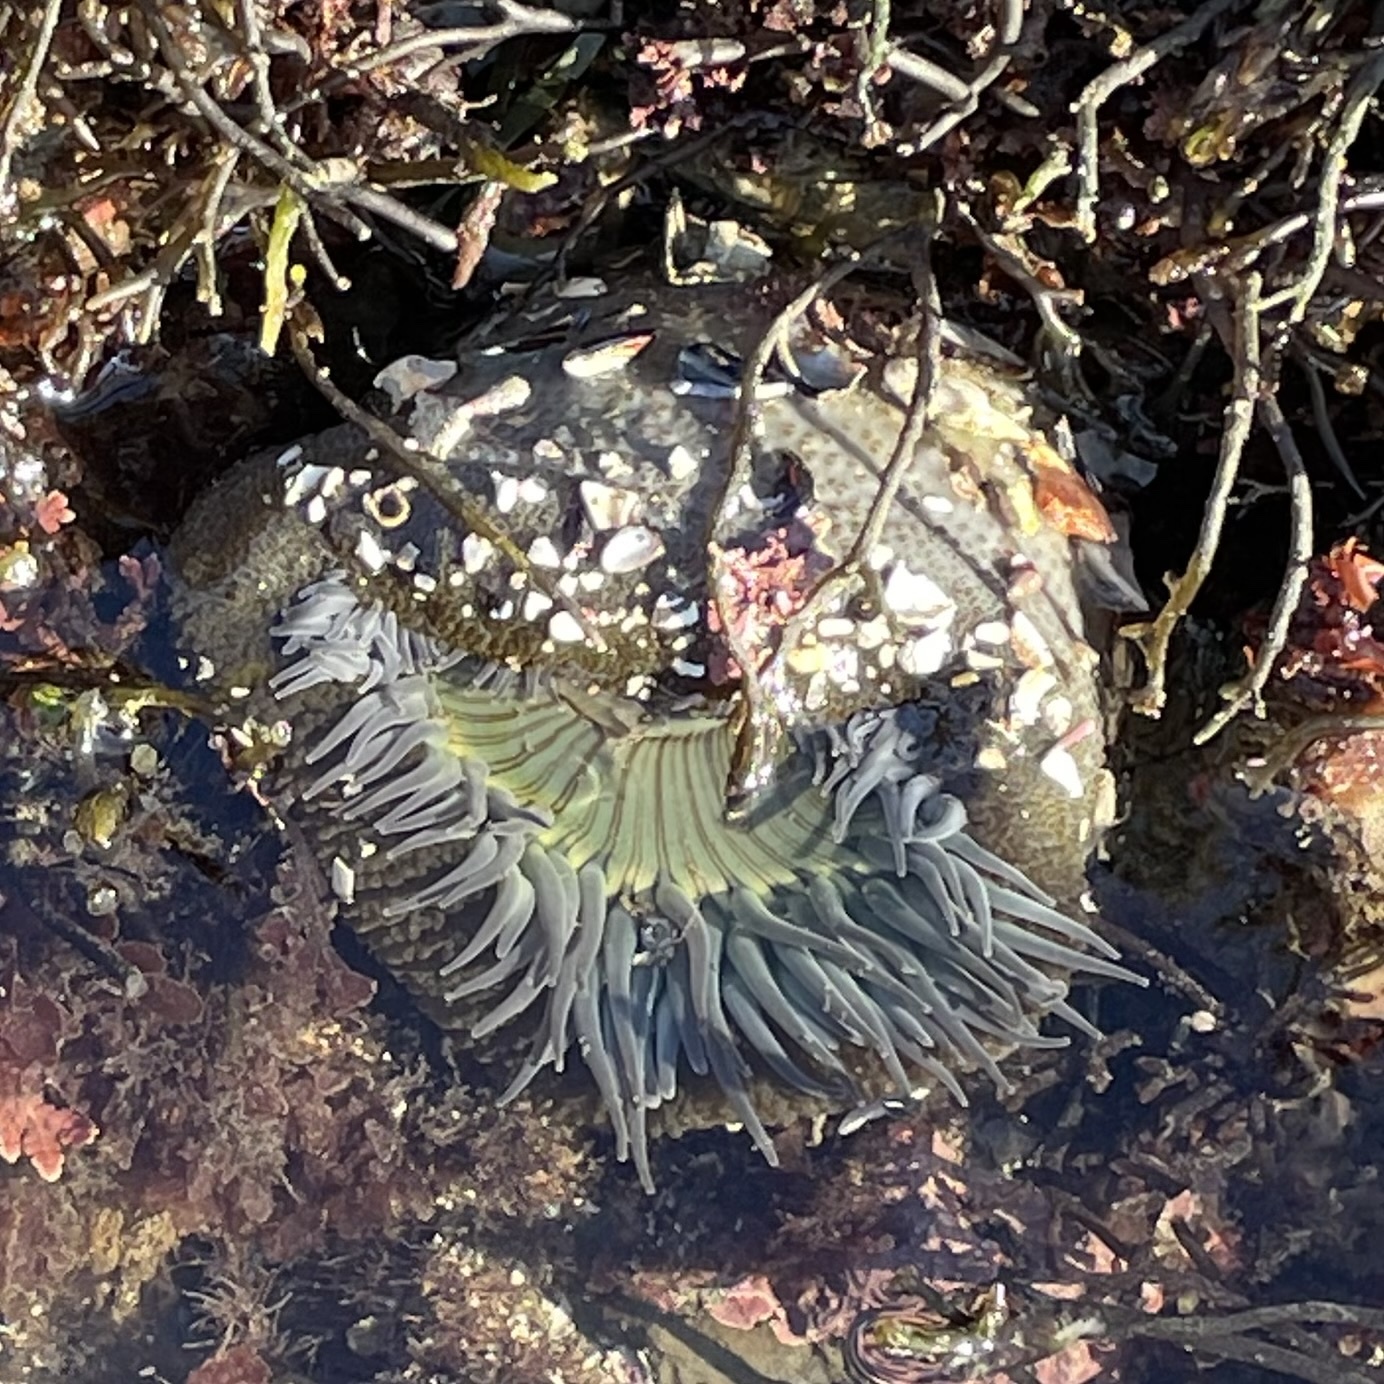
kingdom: Animalia
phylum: Cnidaria
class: Anthozoa
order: Actiniaria
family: Actiniidae
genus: Anthopleura
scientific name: Anthopleura sola
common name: Sun anemone
